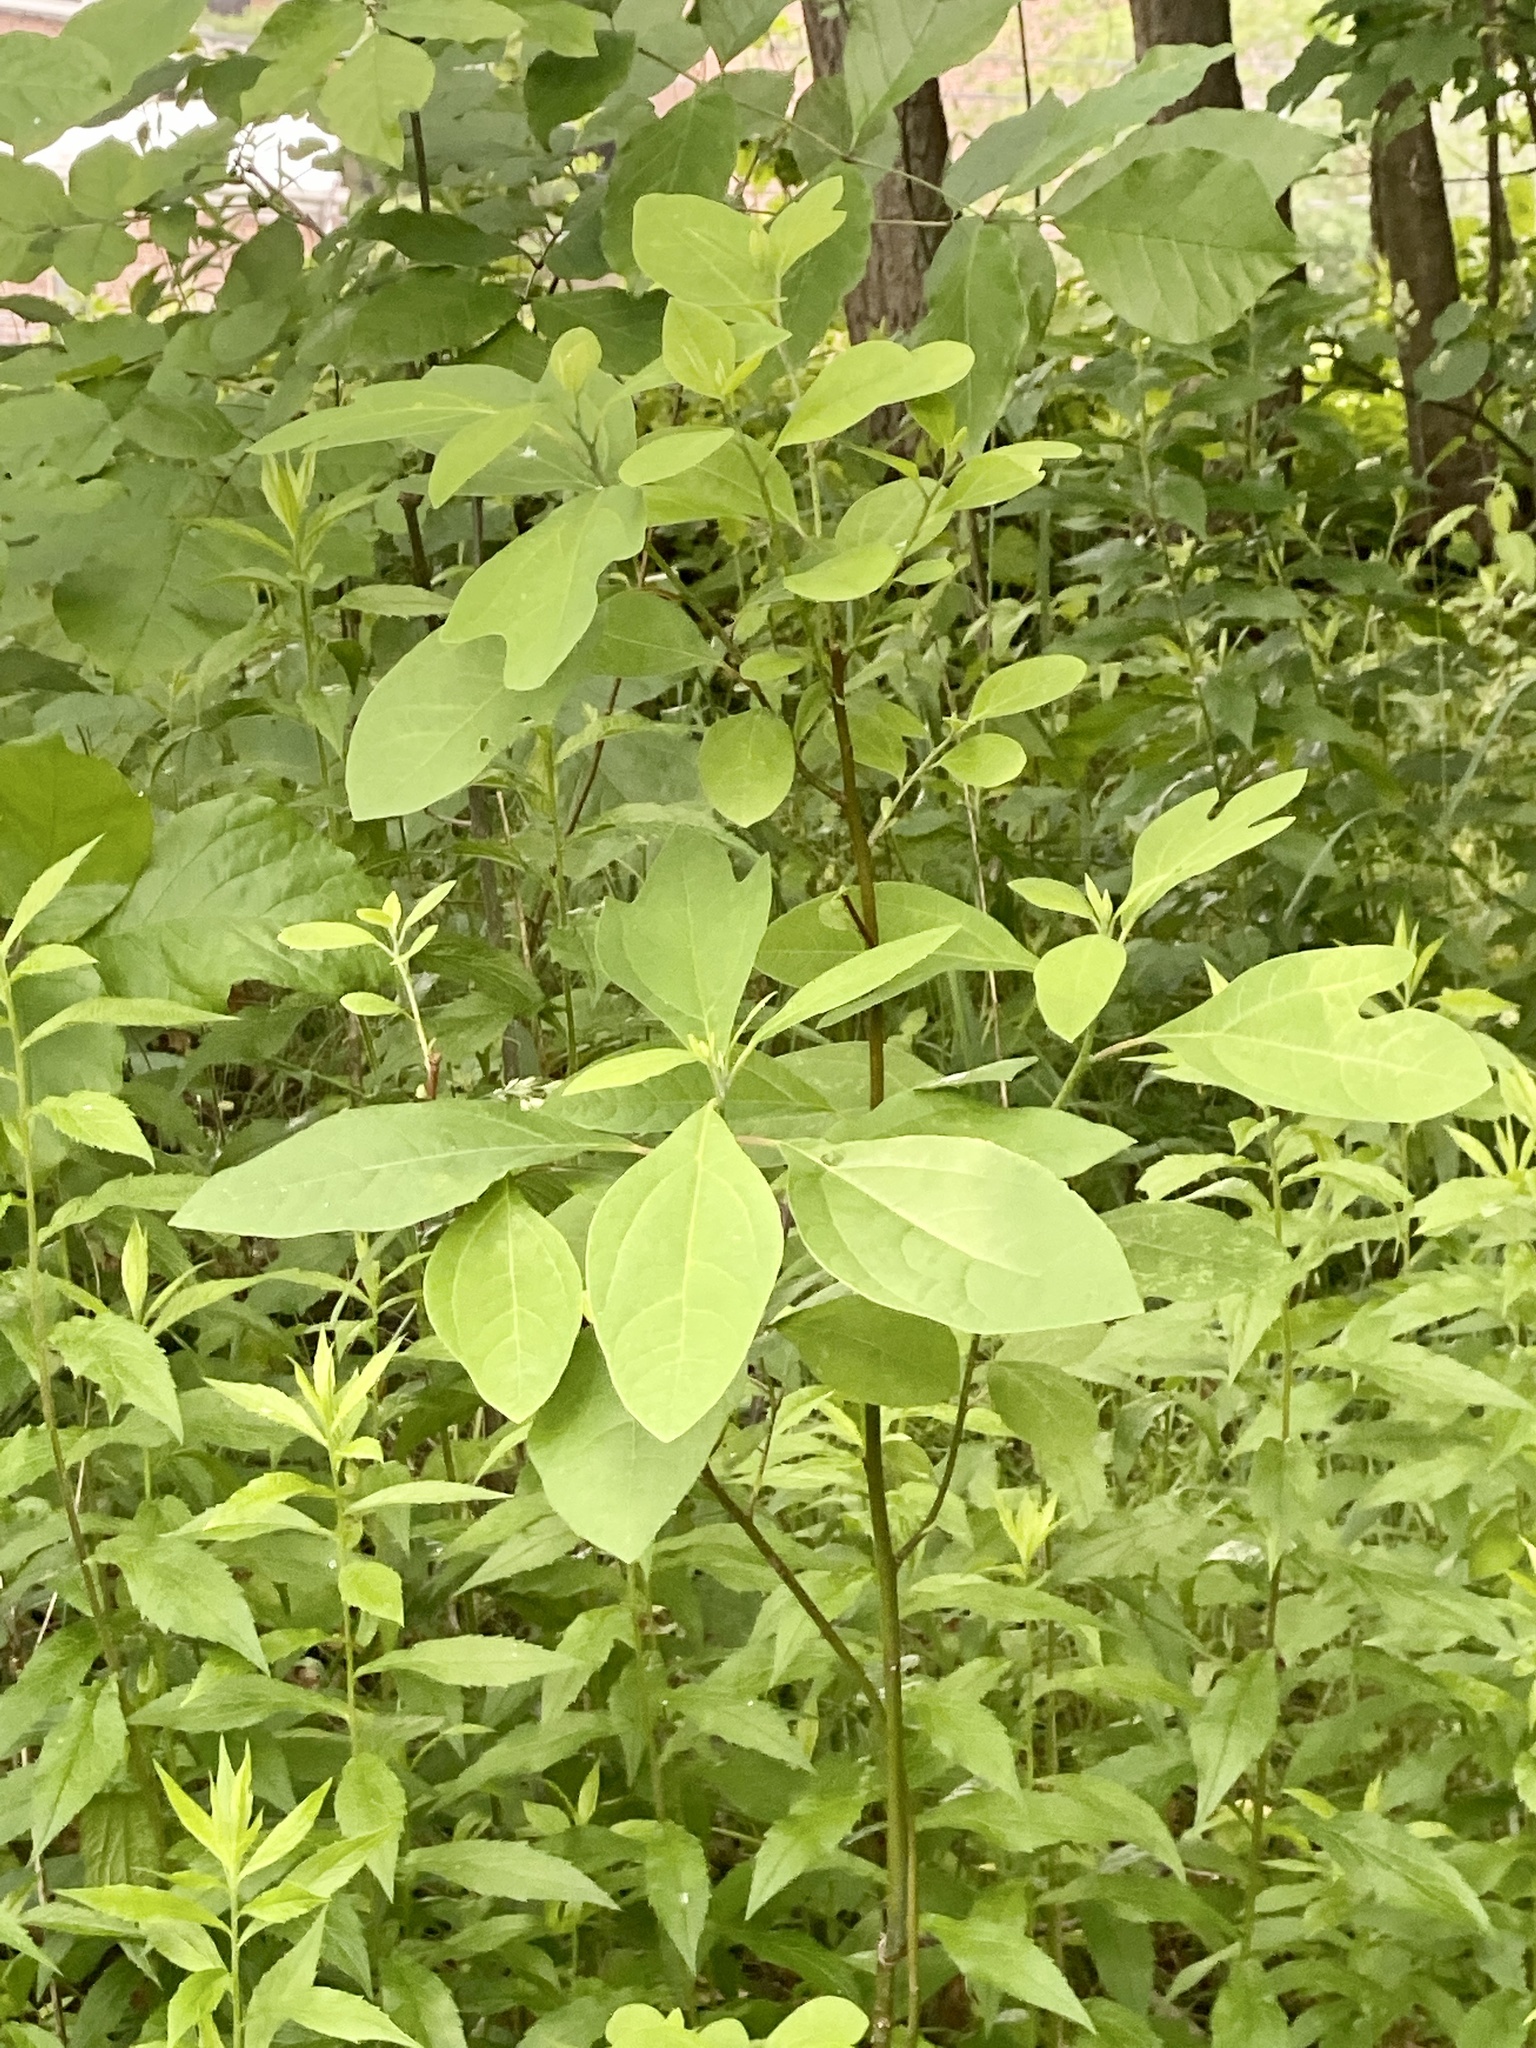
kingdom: Plantae
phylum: Tracheophyta
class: Magnoliopsida
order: Laurales
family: Lauraceae
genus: Sassafras
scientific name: Sassafras albidum
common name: Sassafras
